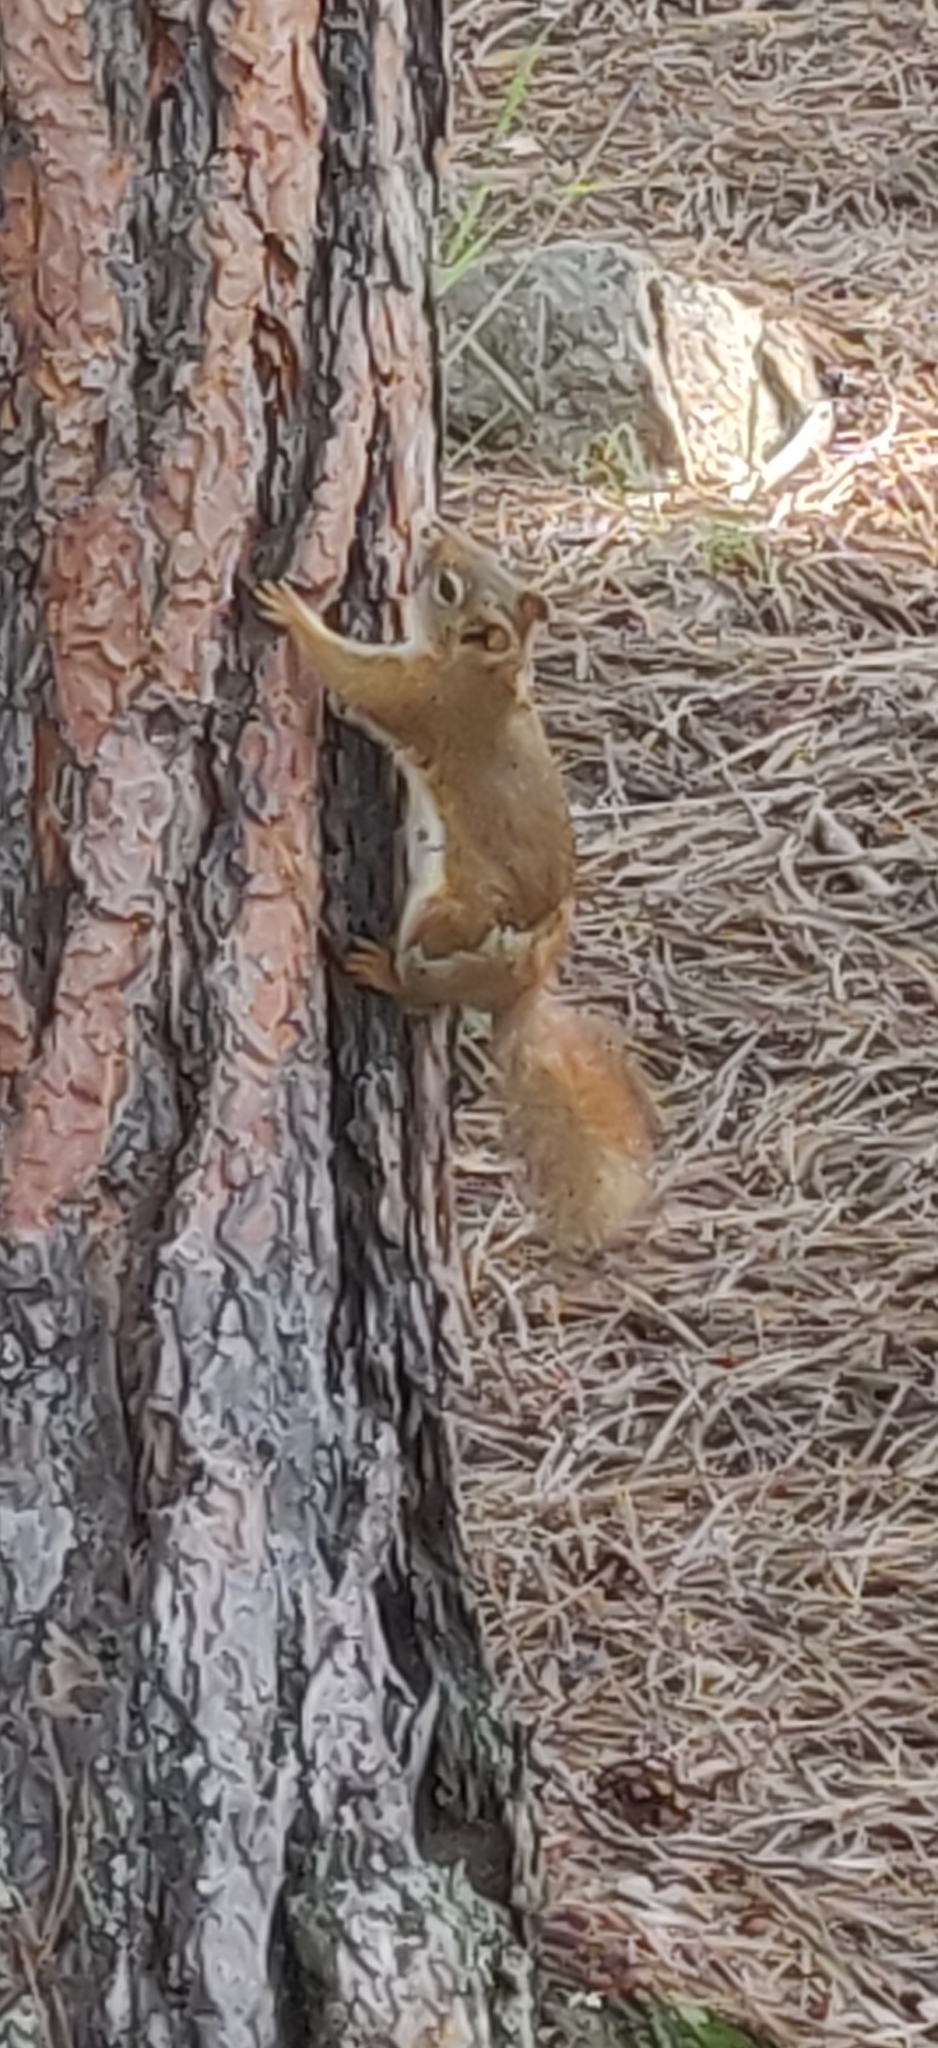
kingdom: Animalia
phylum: Chordata
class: Mammalia
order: Rodentia
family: Sciuridae
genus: Tamiasciurus
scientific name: Tamiasciurus hudsonicus
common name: Red squirrel
